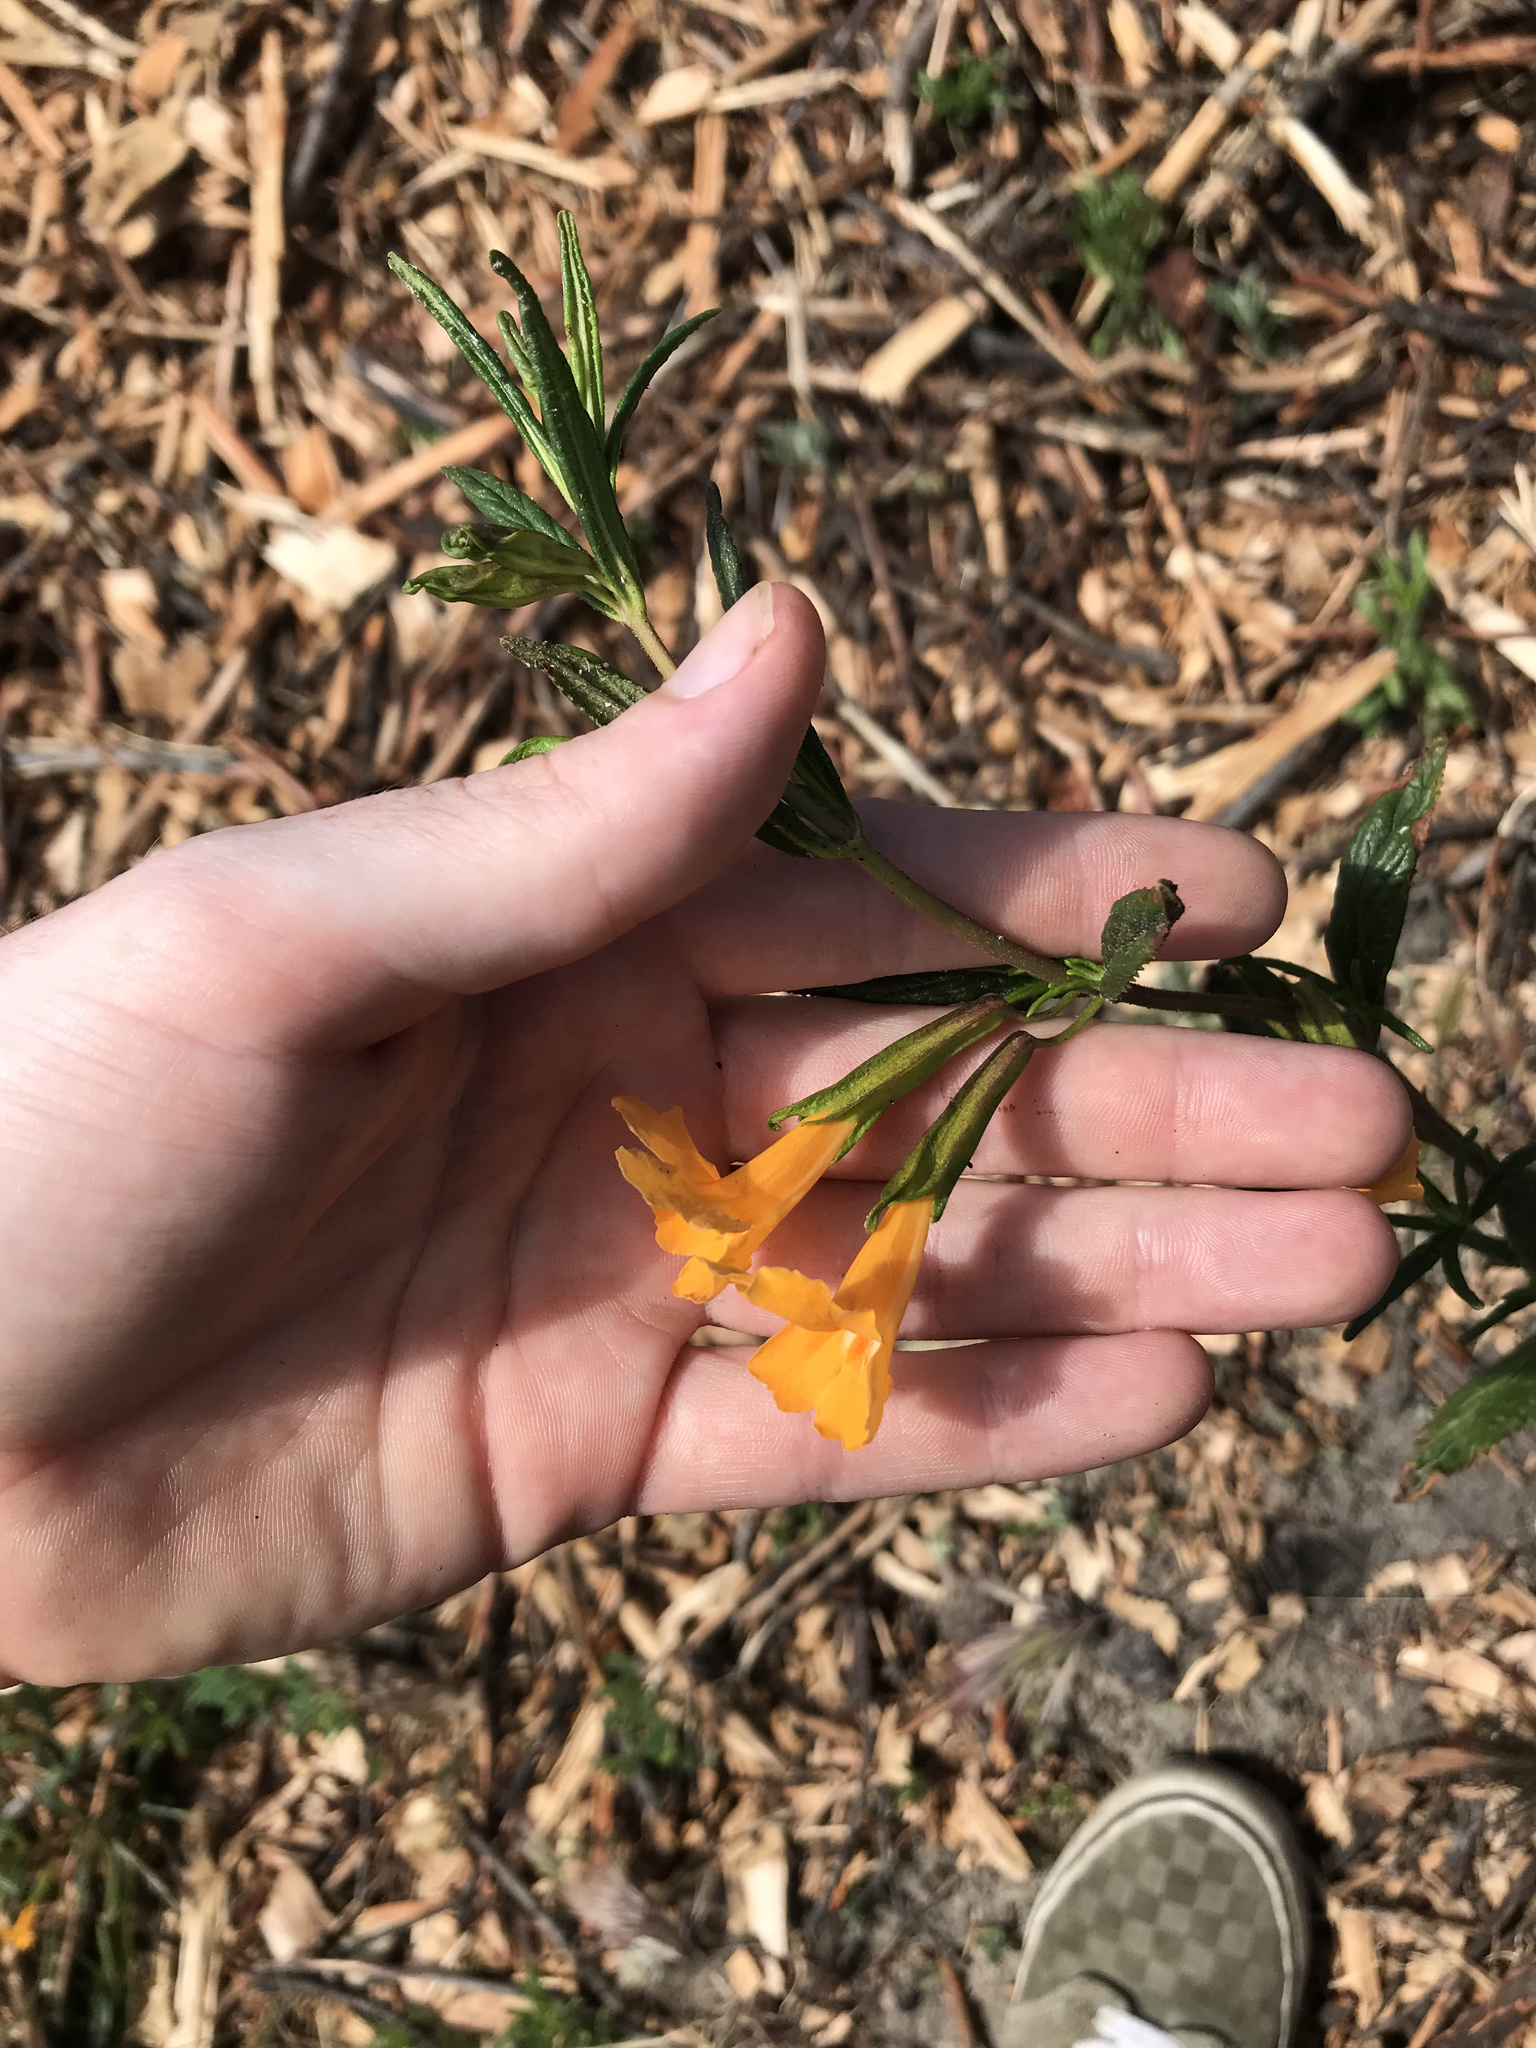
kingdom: Plantae
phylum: Tracheophyta
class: Magnoliopsida
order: Lamiales
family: Phrymaceae
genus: Diplacus
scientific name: Diplacus aurantiacus
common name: Bush monkey-flower
